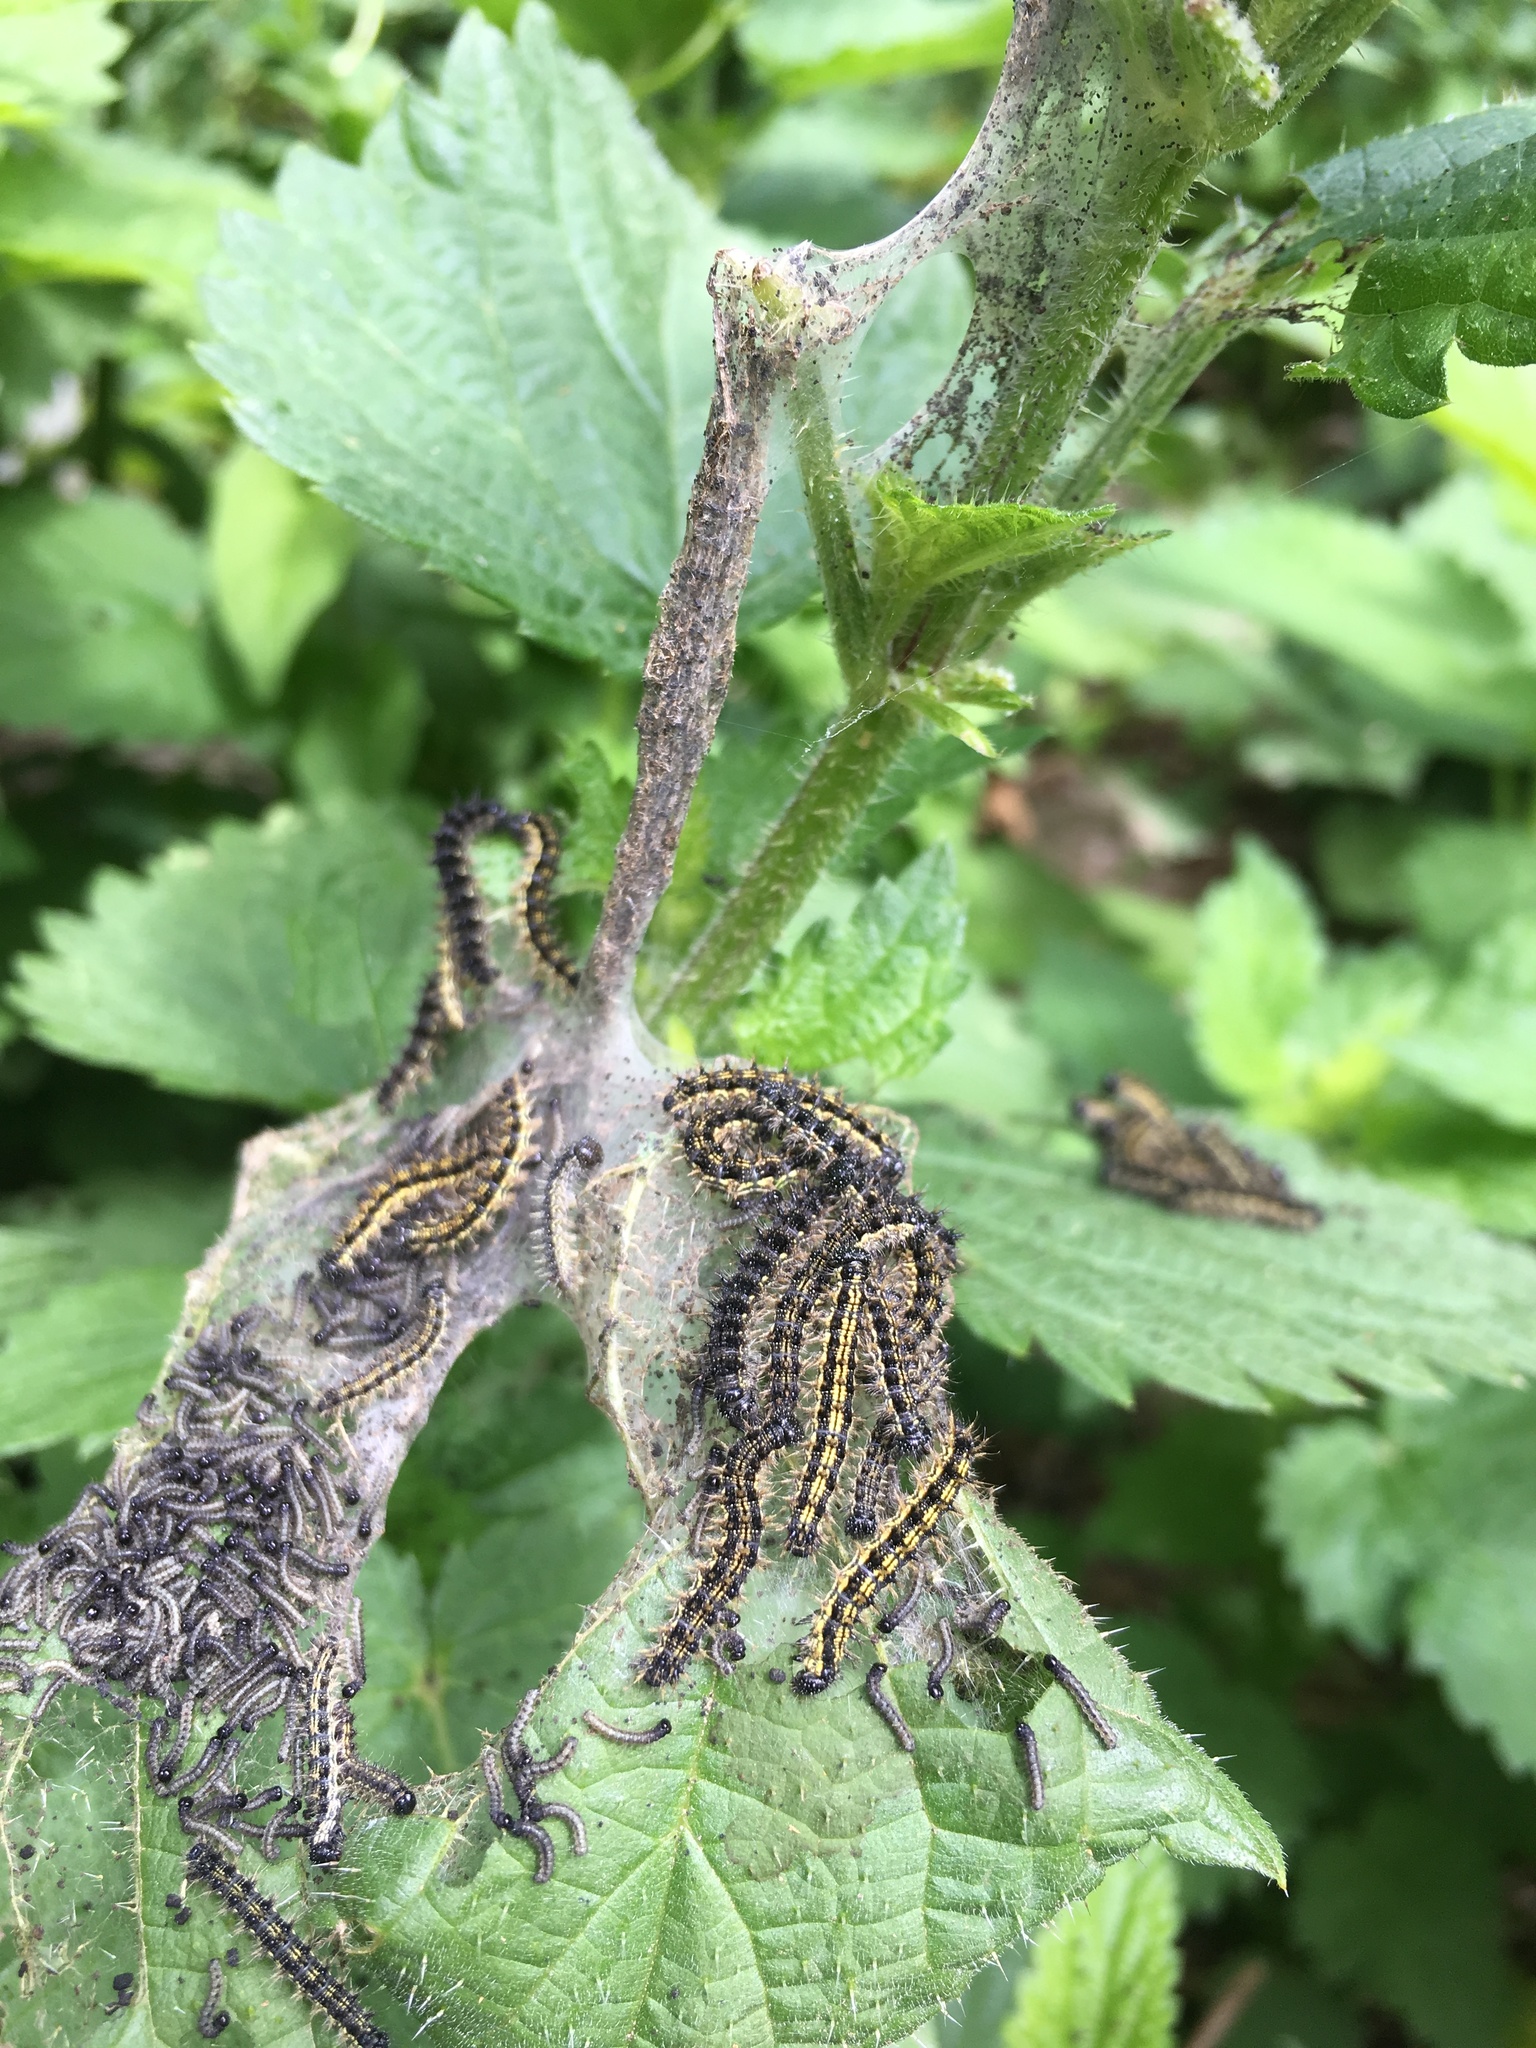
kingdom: Animalia
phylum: Arthropoda
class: Insecta
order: Lepidoptera
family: Nymphalidae
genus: Aglais
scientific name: Aglais urticae
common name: Small tortoiseshell
